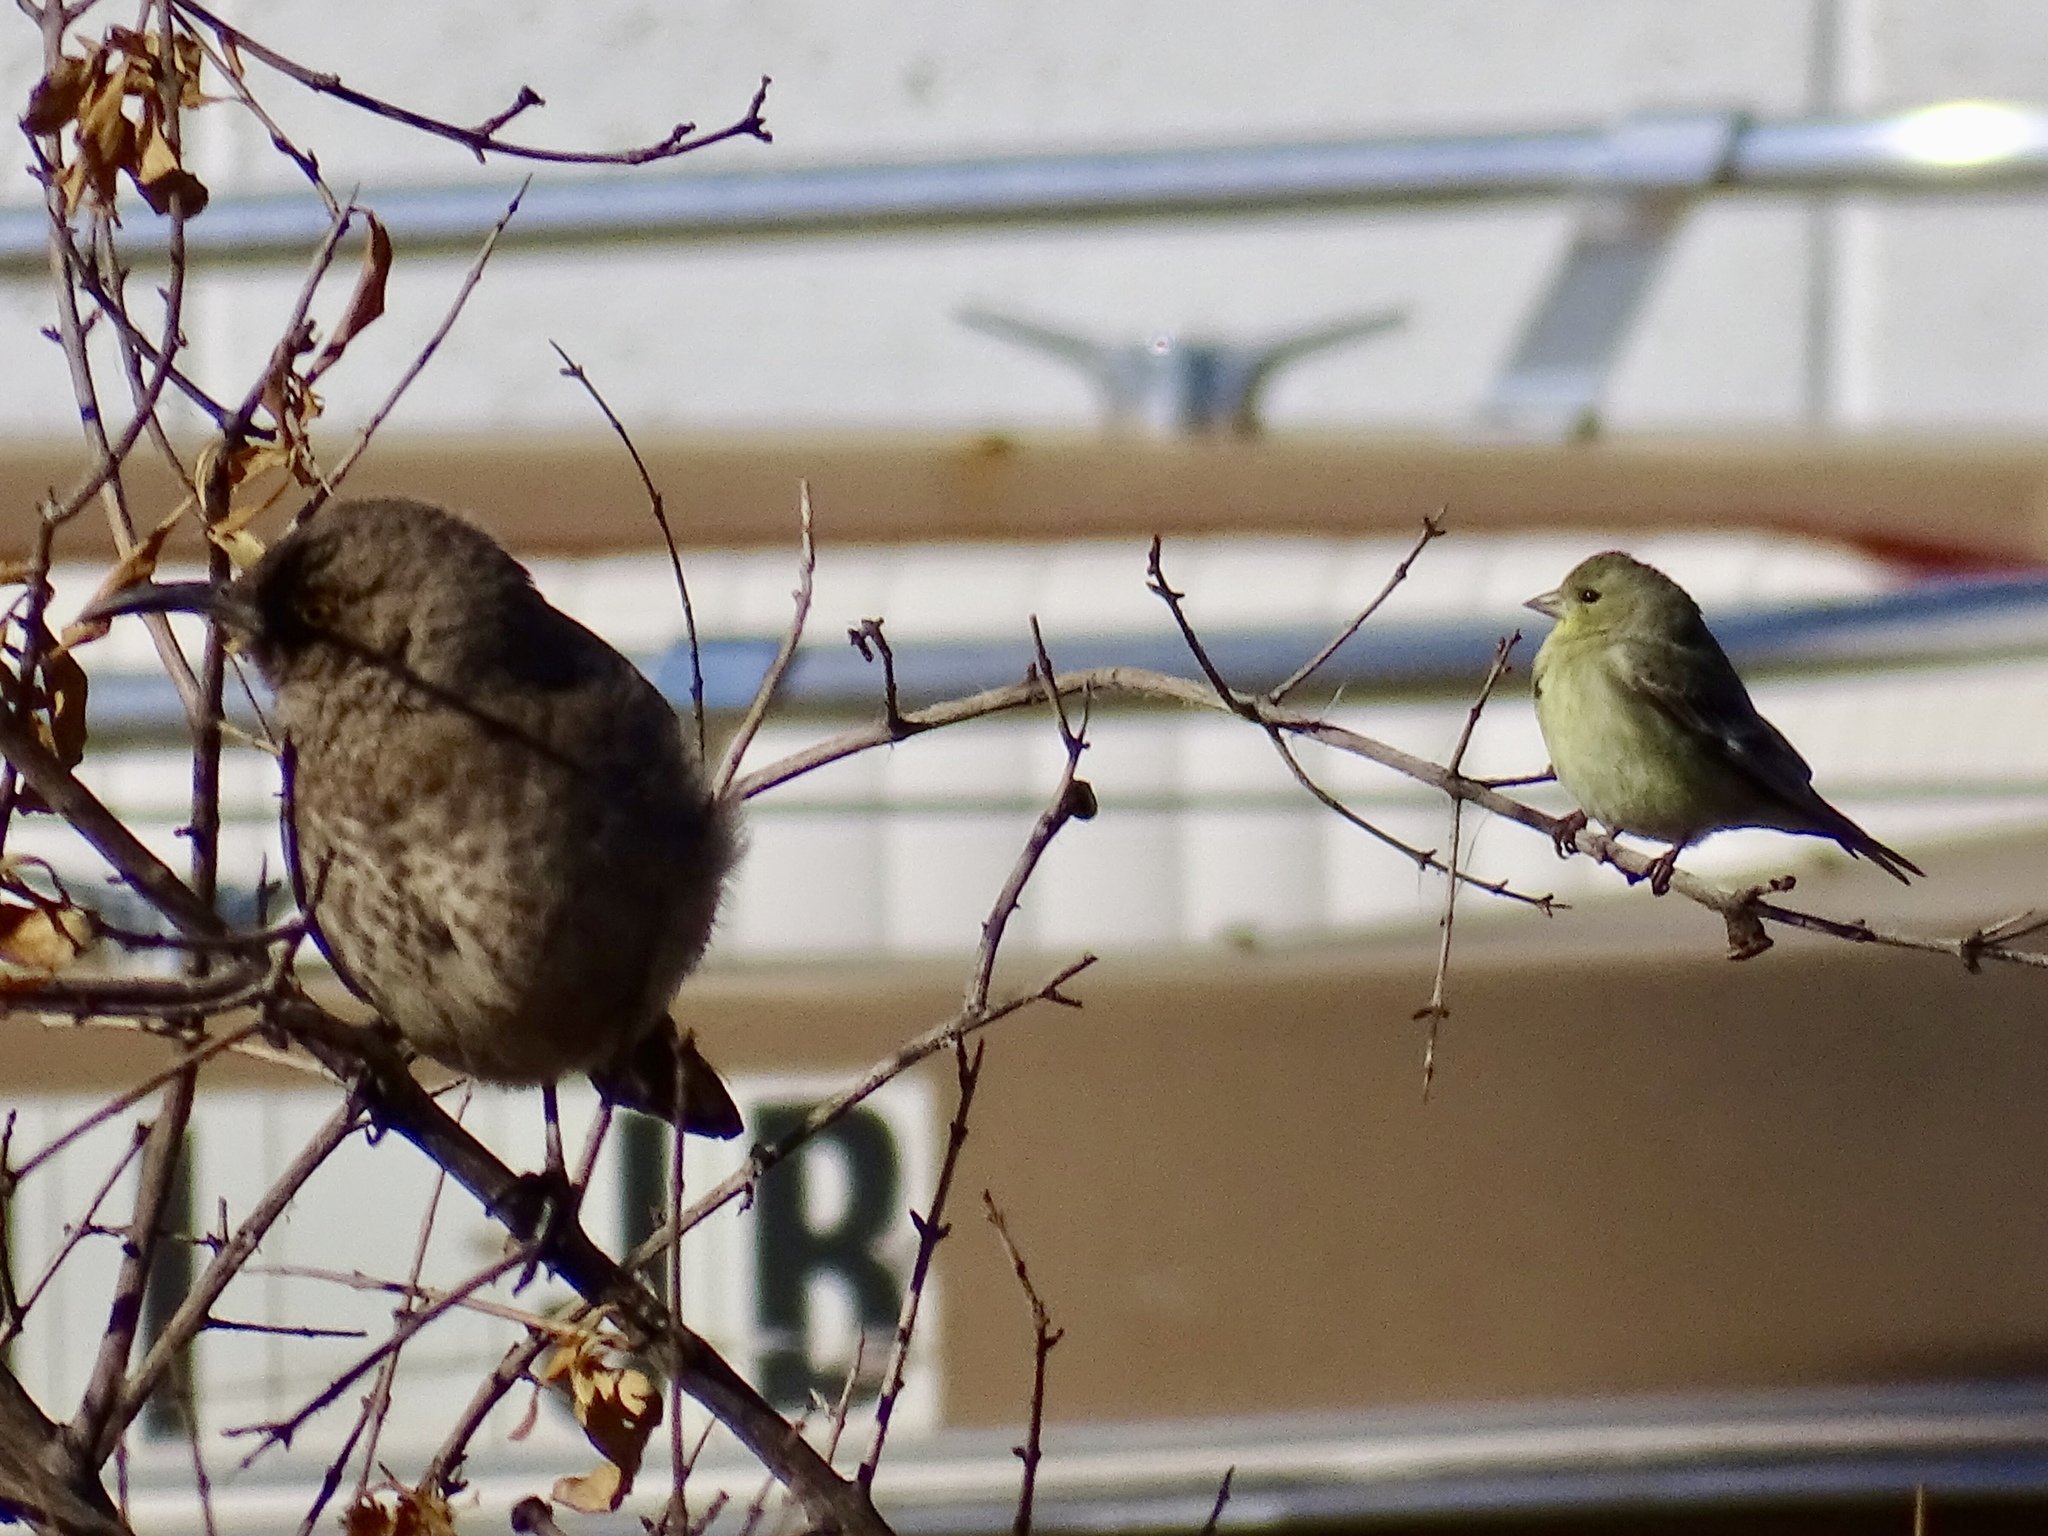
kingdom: Animalia
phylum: Chordata
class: Aves
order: Passeriformes
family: Fringillidae
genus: Spinus
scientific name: Spinus psaltria
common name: Lesser goldfinch
